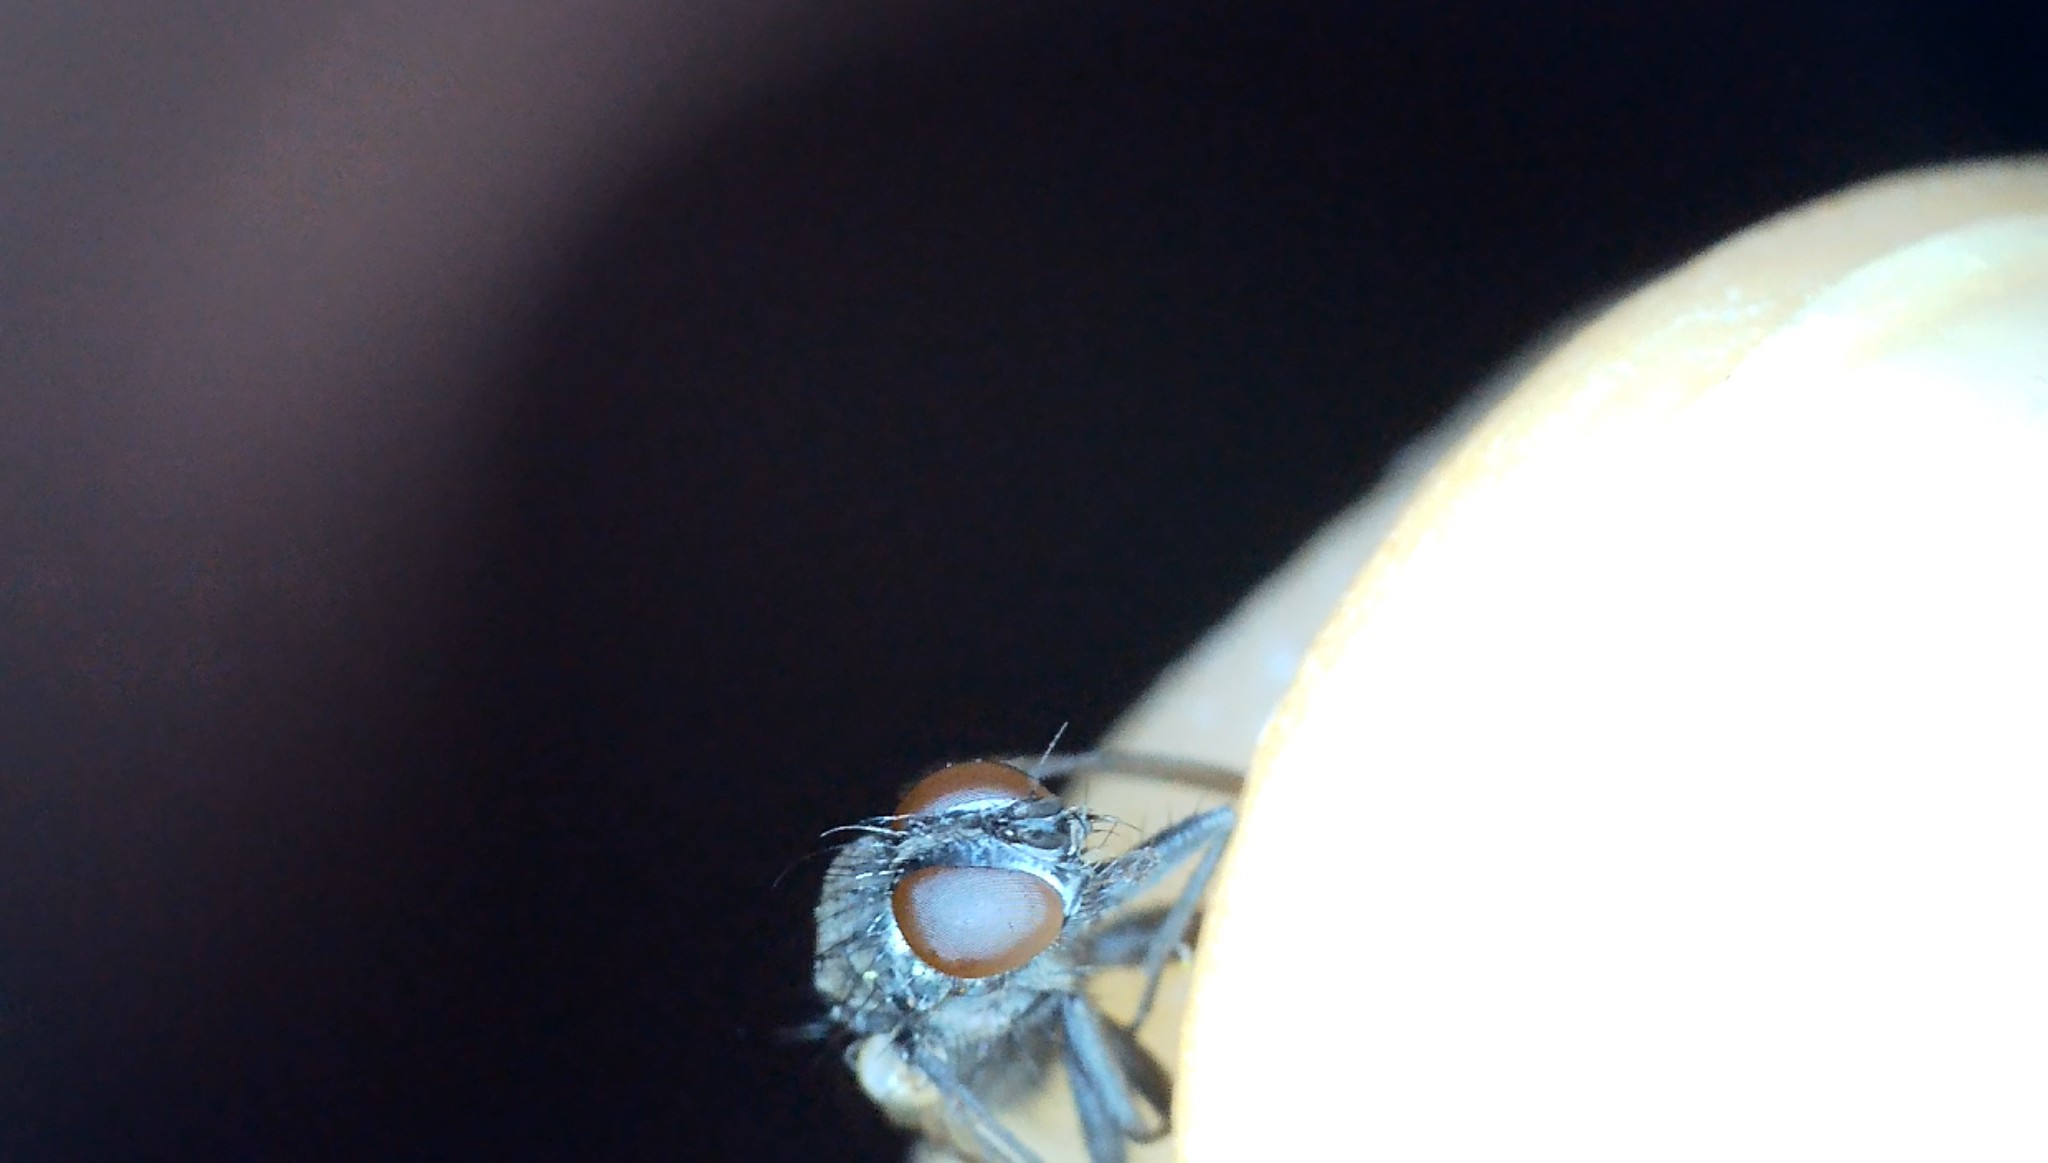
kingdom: Animalia
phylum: Arthropoda
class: Insecta
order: Diptera
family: Calliphoridae
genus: Rhinophora
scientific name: Rhinophora lepida
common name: Pouting woodlouse-fly
